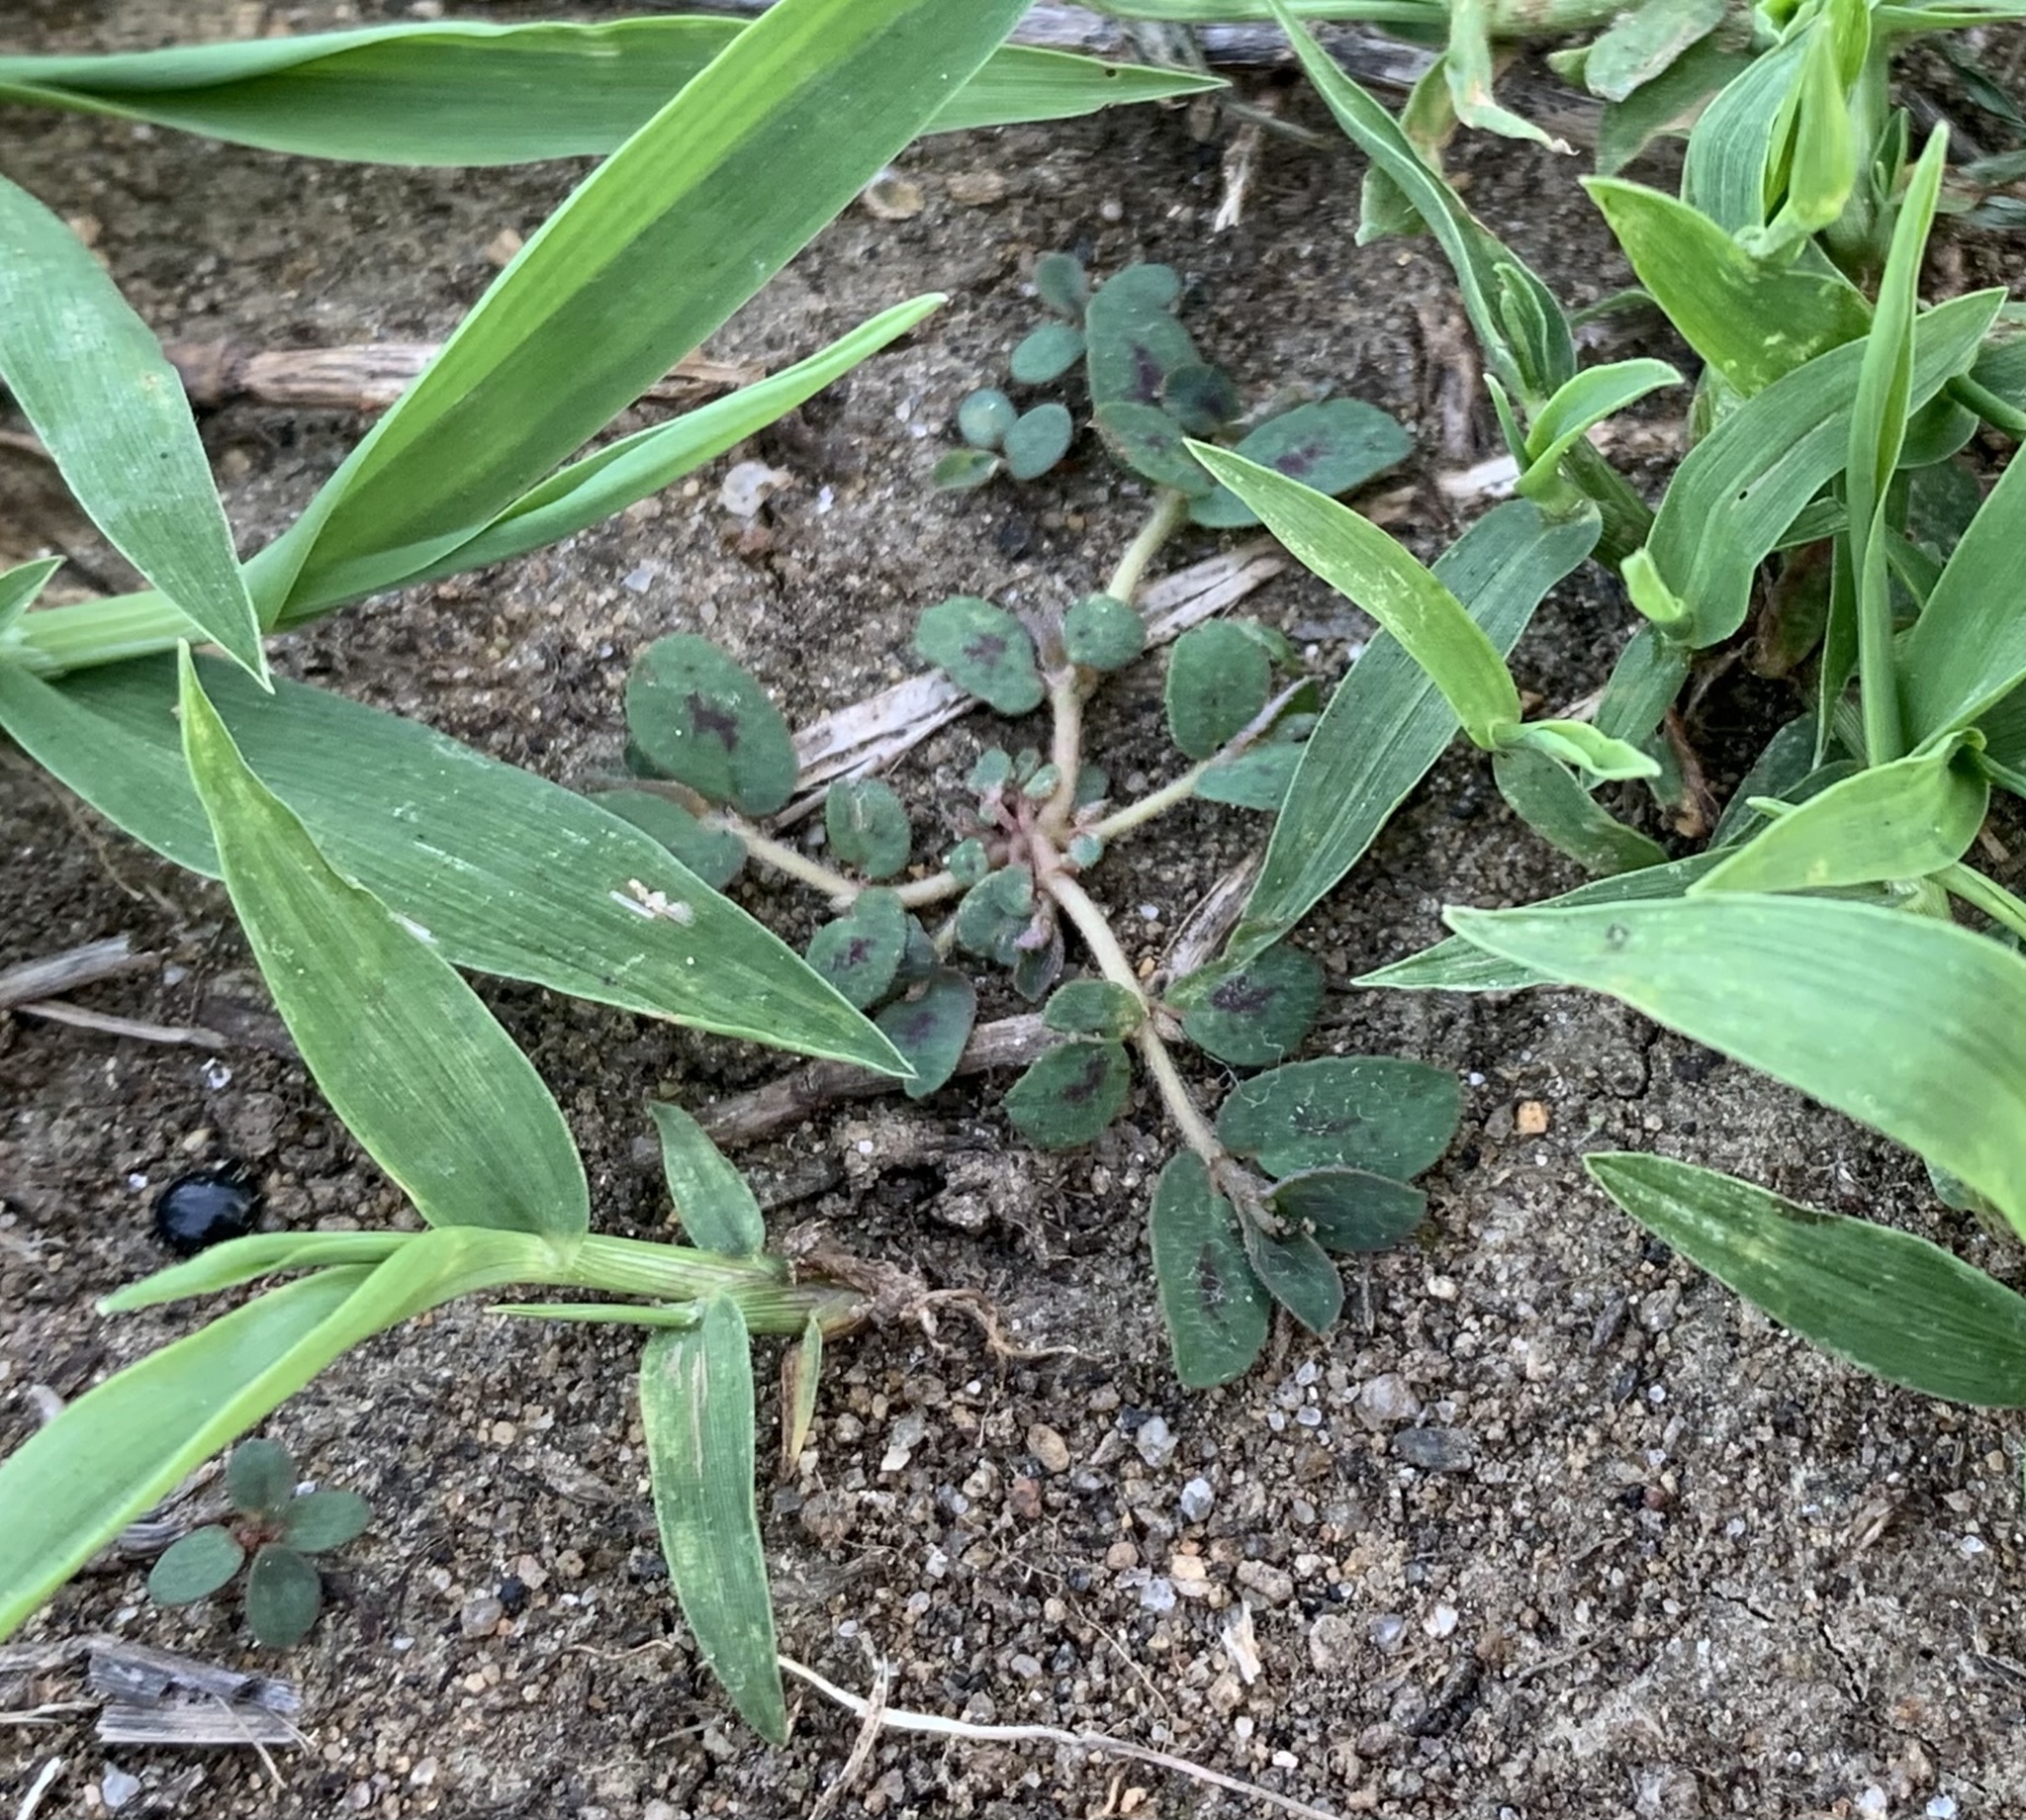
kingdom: Plantae
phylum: Tracheophyta
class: Magnoliopsida
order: Malpighiales
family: Euphorbiaceae
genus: Euphorbia
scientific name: Euphorbia maculata
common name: Spotted spurge
